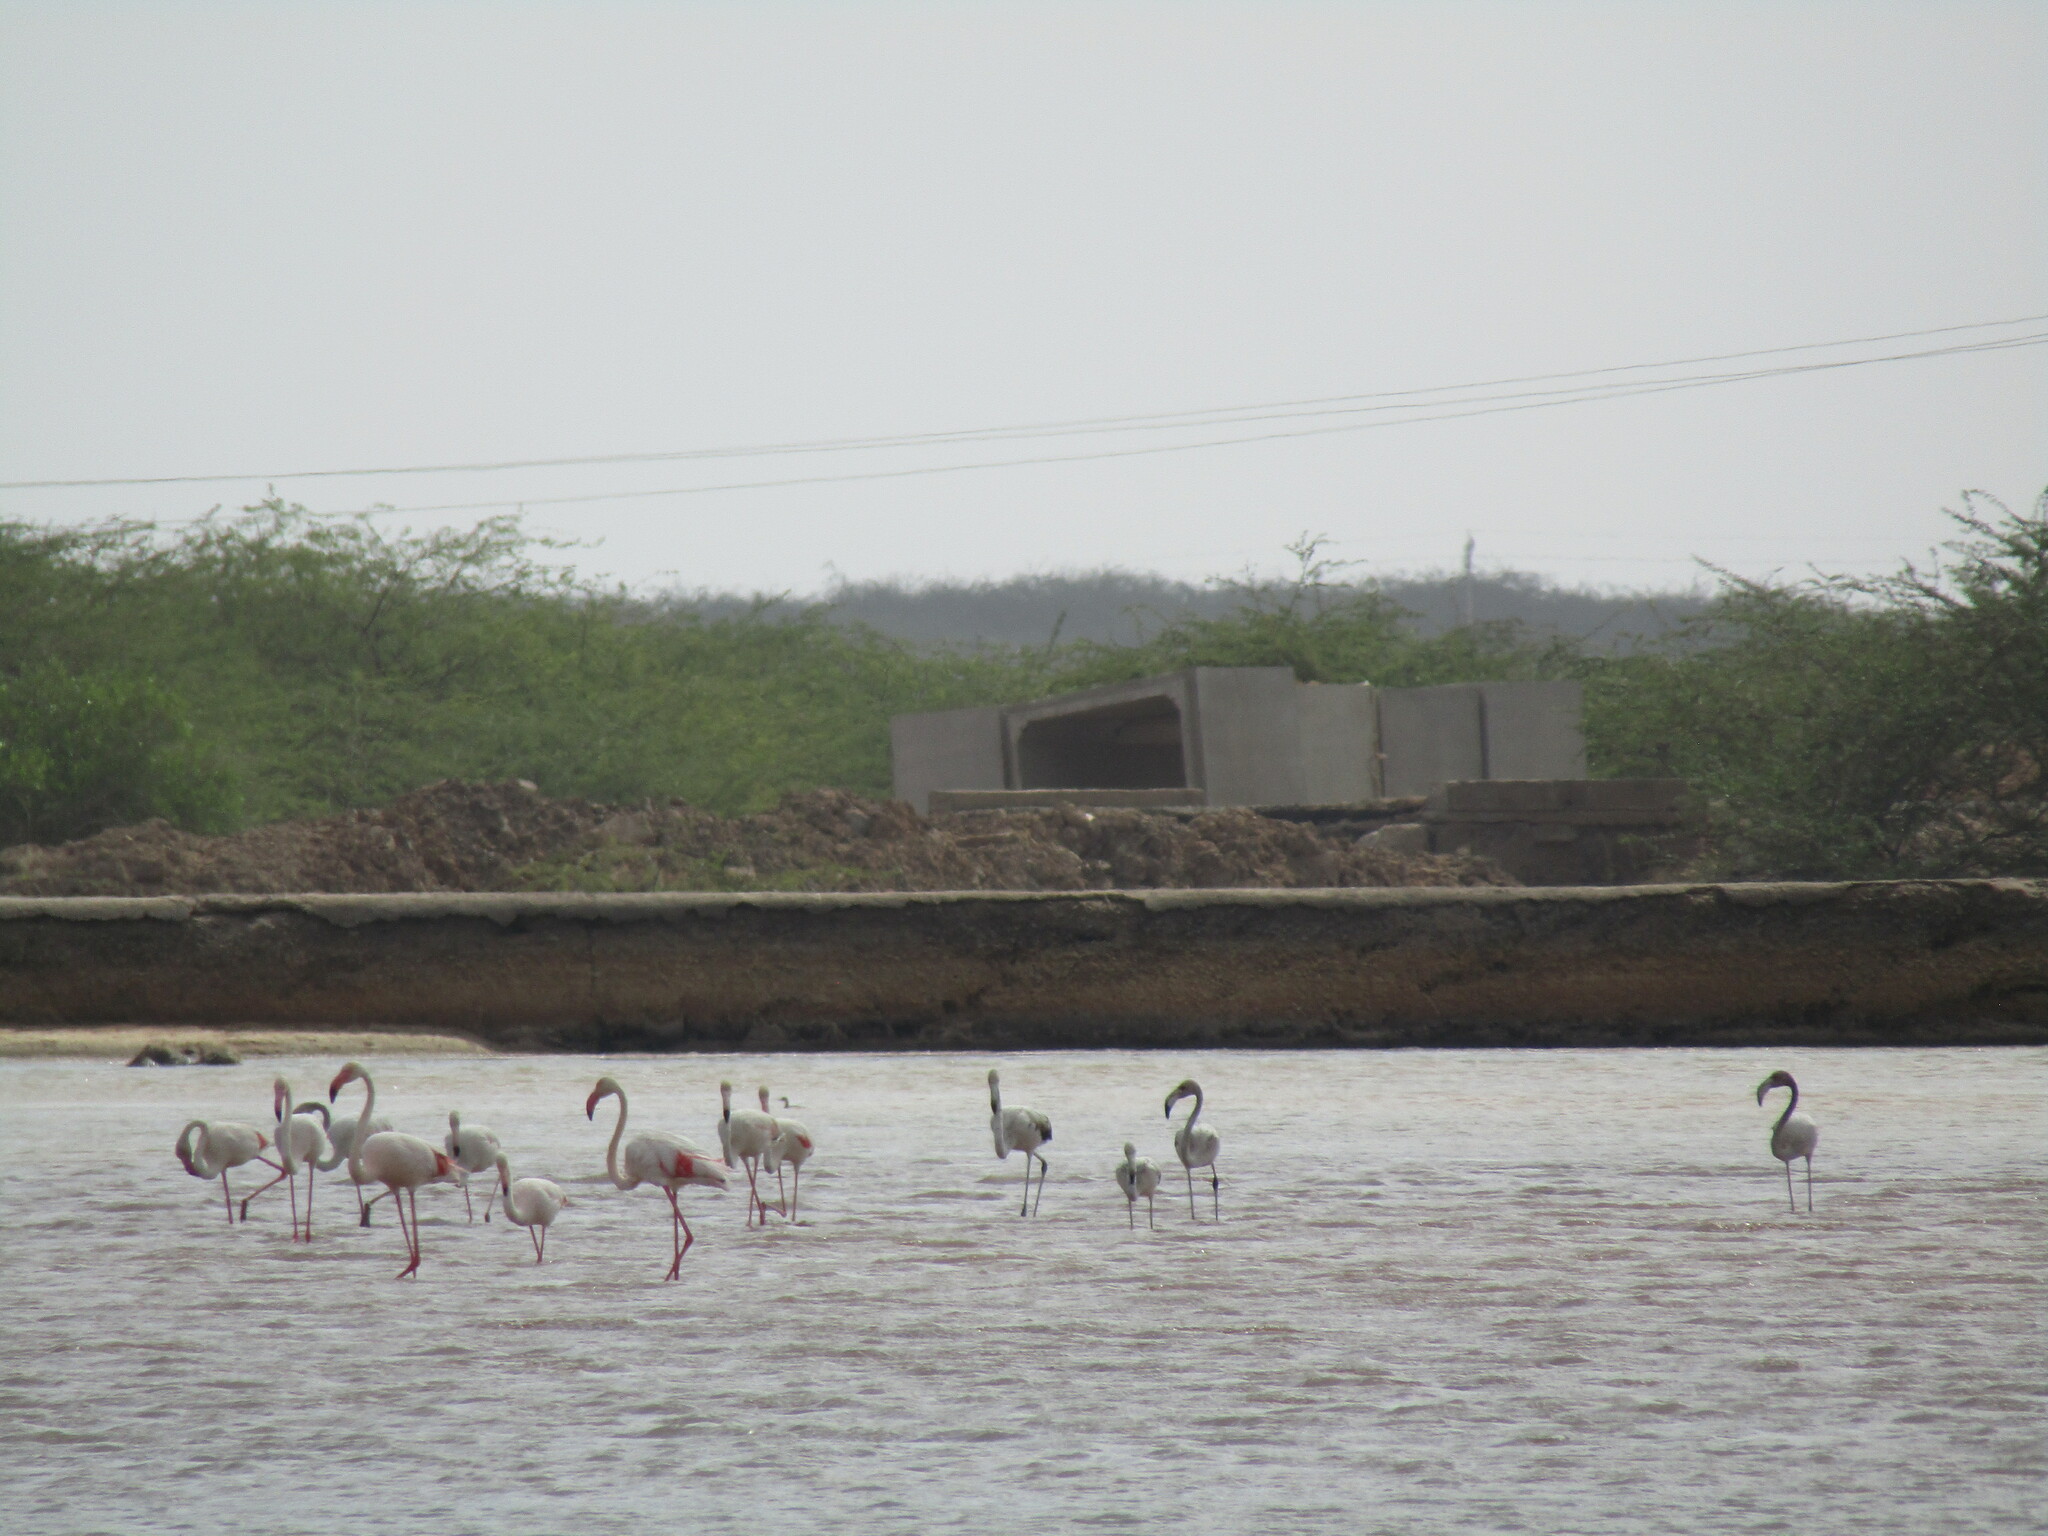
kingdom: Animalia
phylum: Chordata
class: Aves
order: Phoenicopteriformes
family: Phoenicopteridae
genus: Phoenicopterus
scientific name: Phoenicopterus roseus
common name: Greater flamingo
